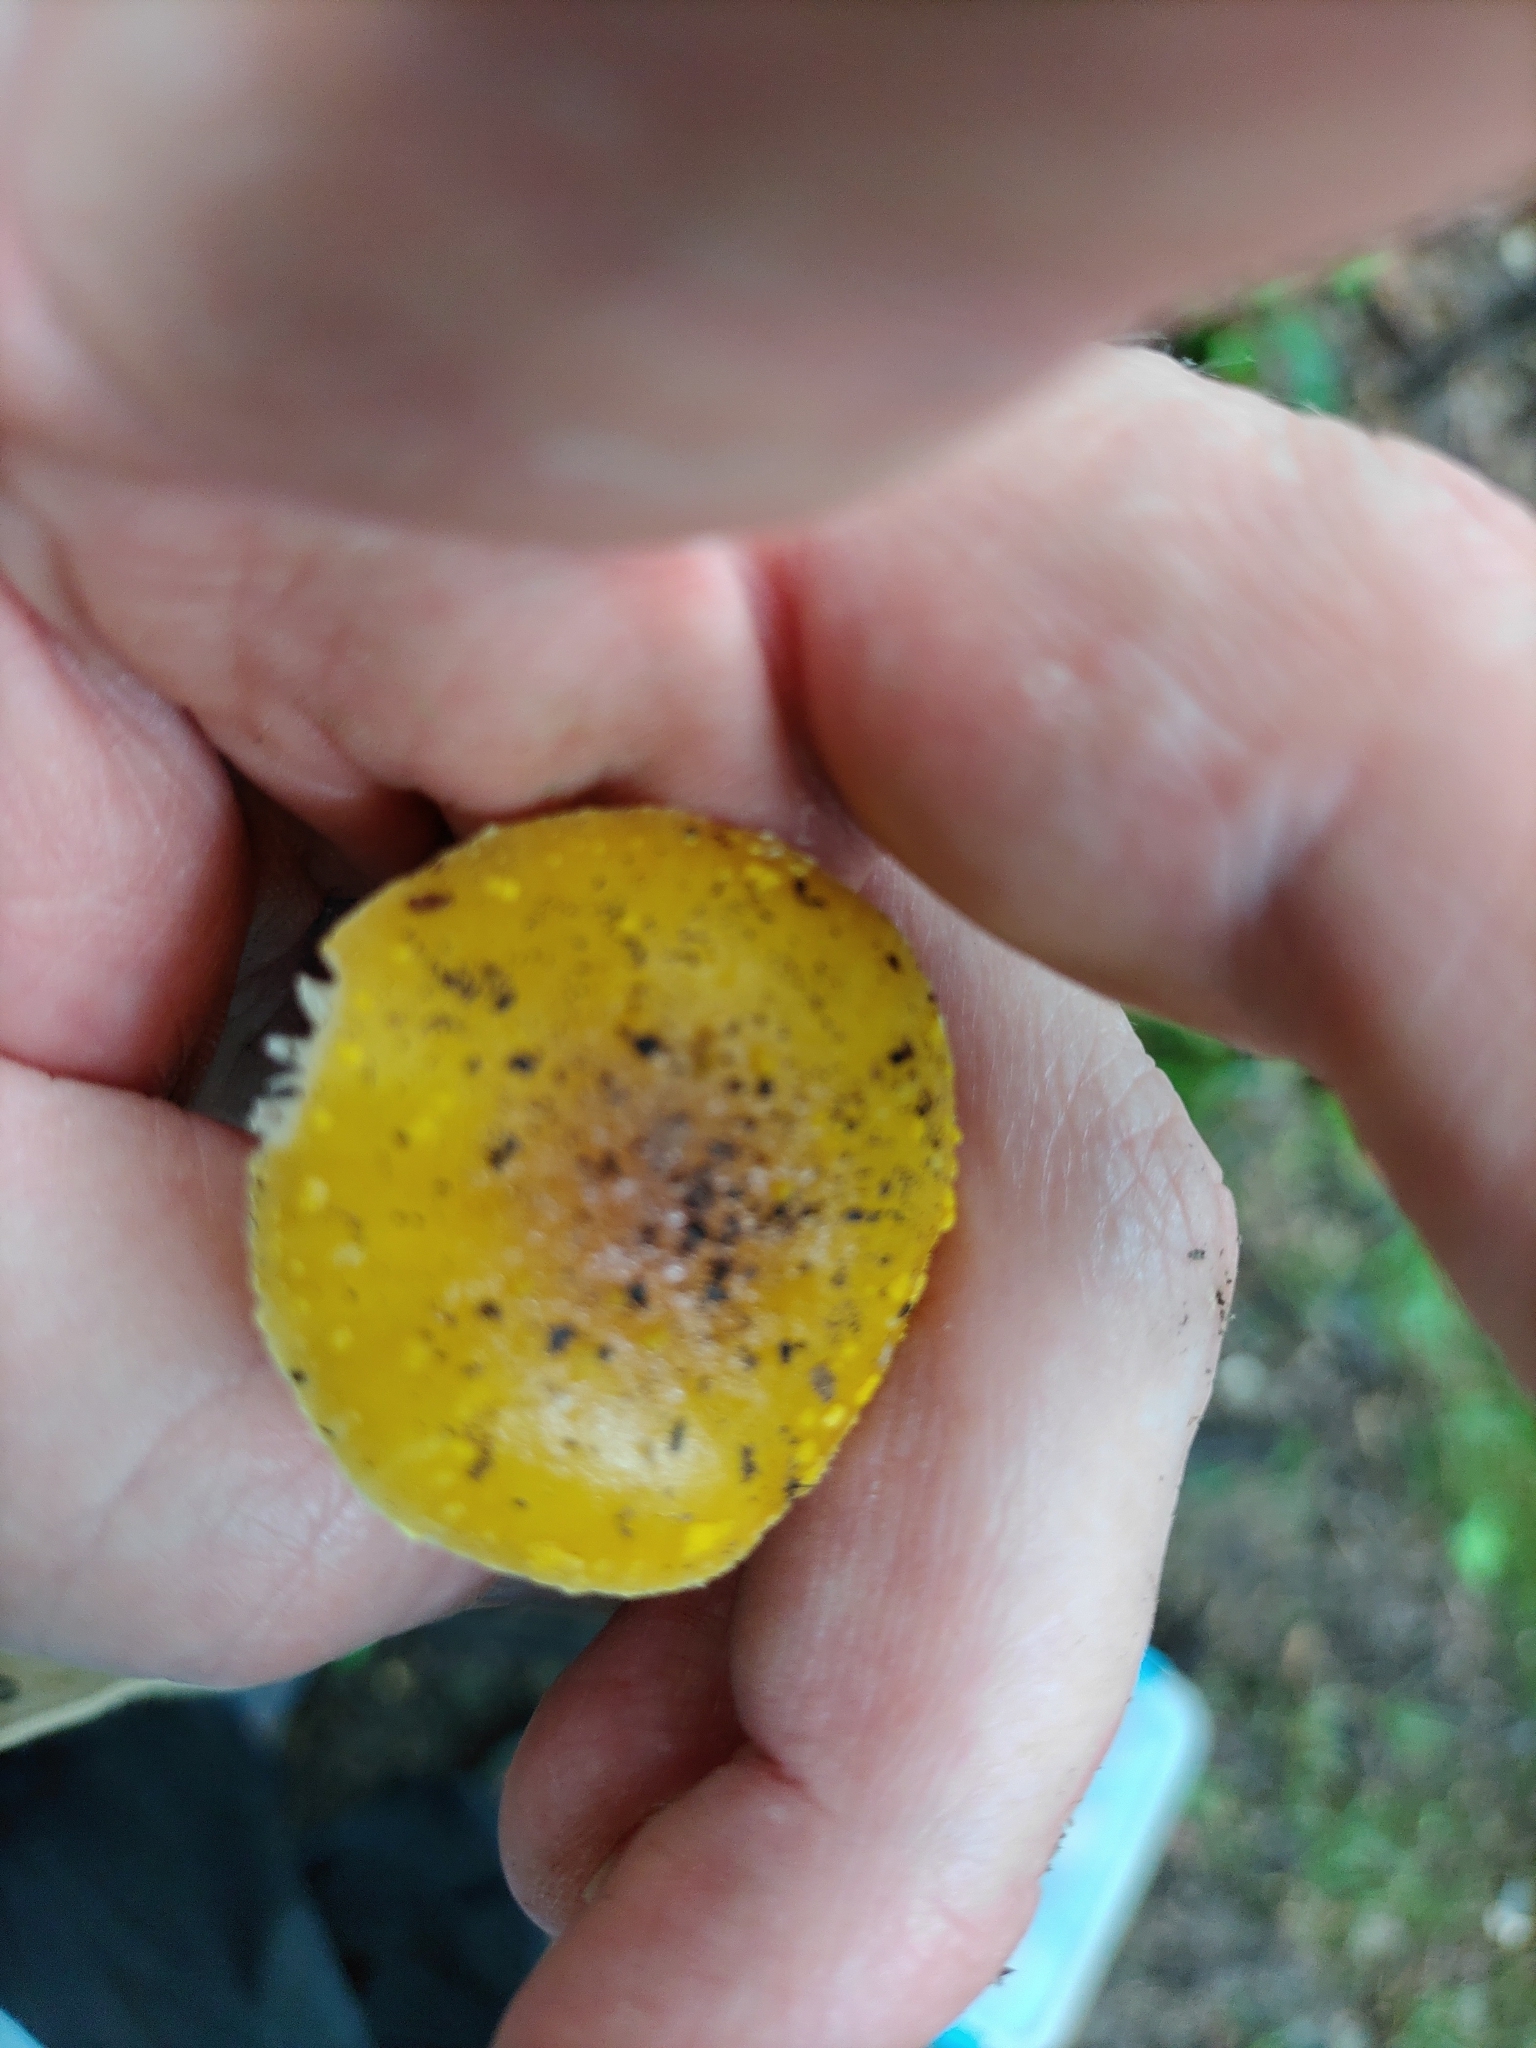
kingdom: Fungi
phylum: Basidiomycota
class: Agaricomycetes
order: Agaricales
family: Amanitaceae
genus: Amanita
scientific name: Amanita frostiana
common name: Frost's amanita
